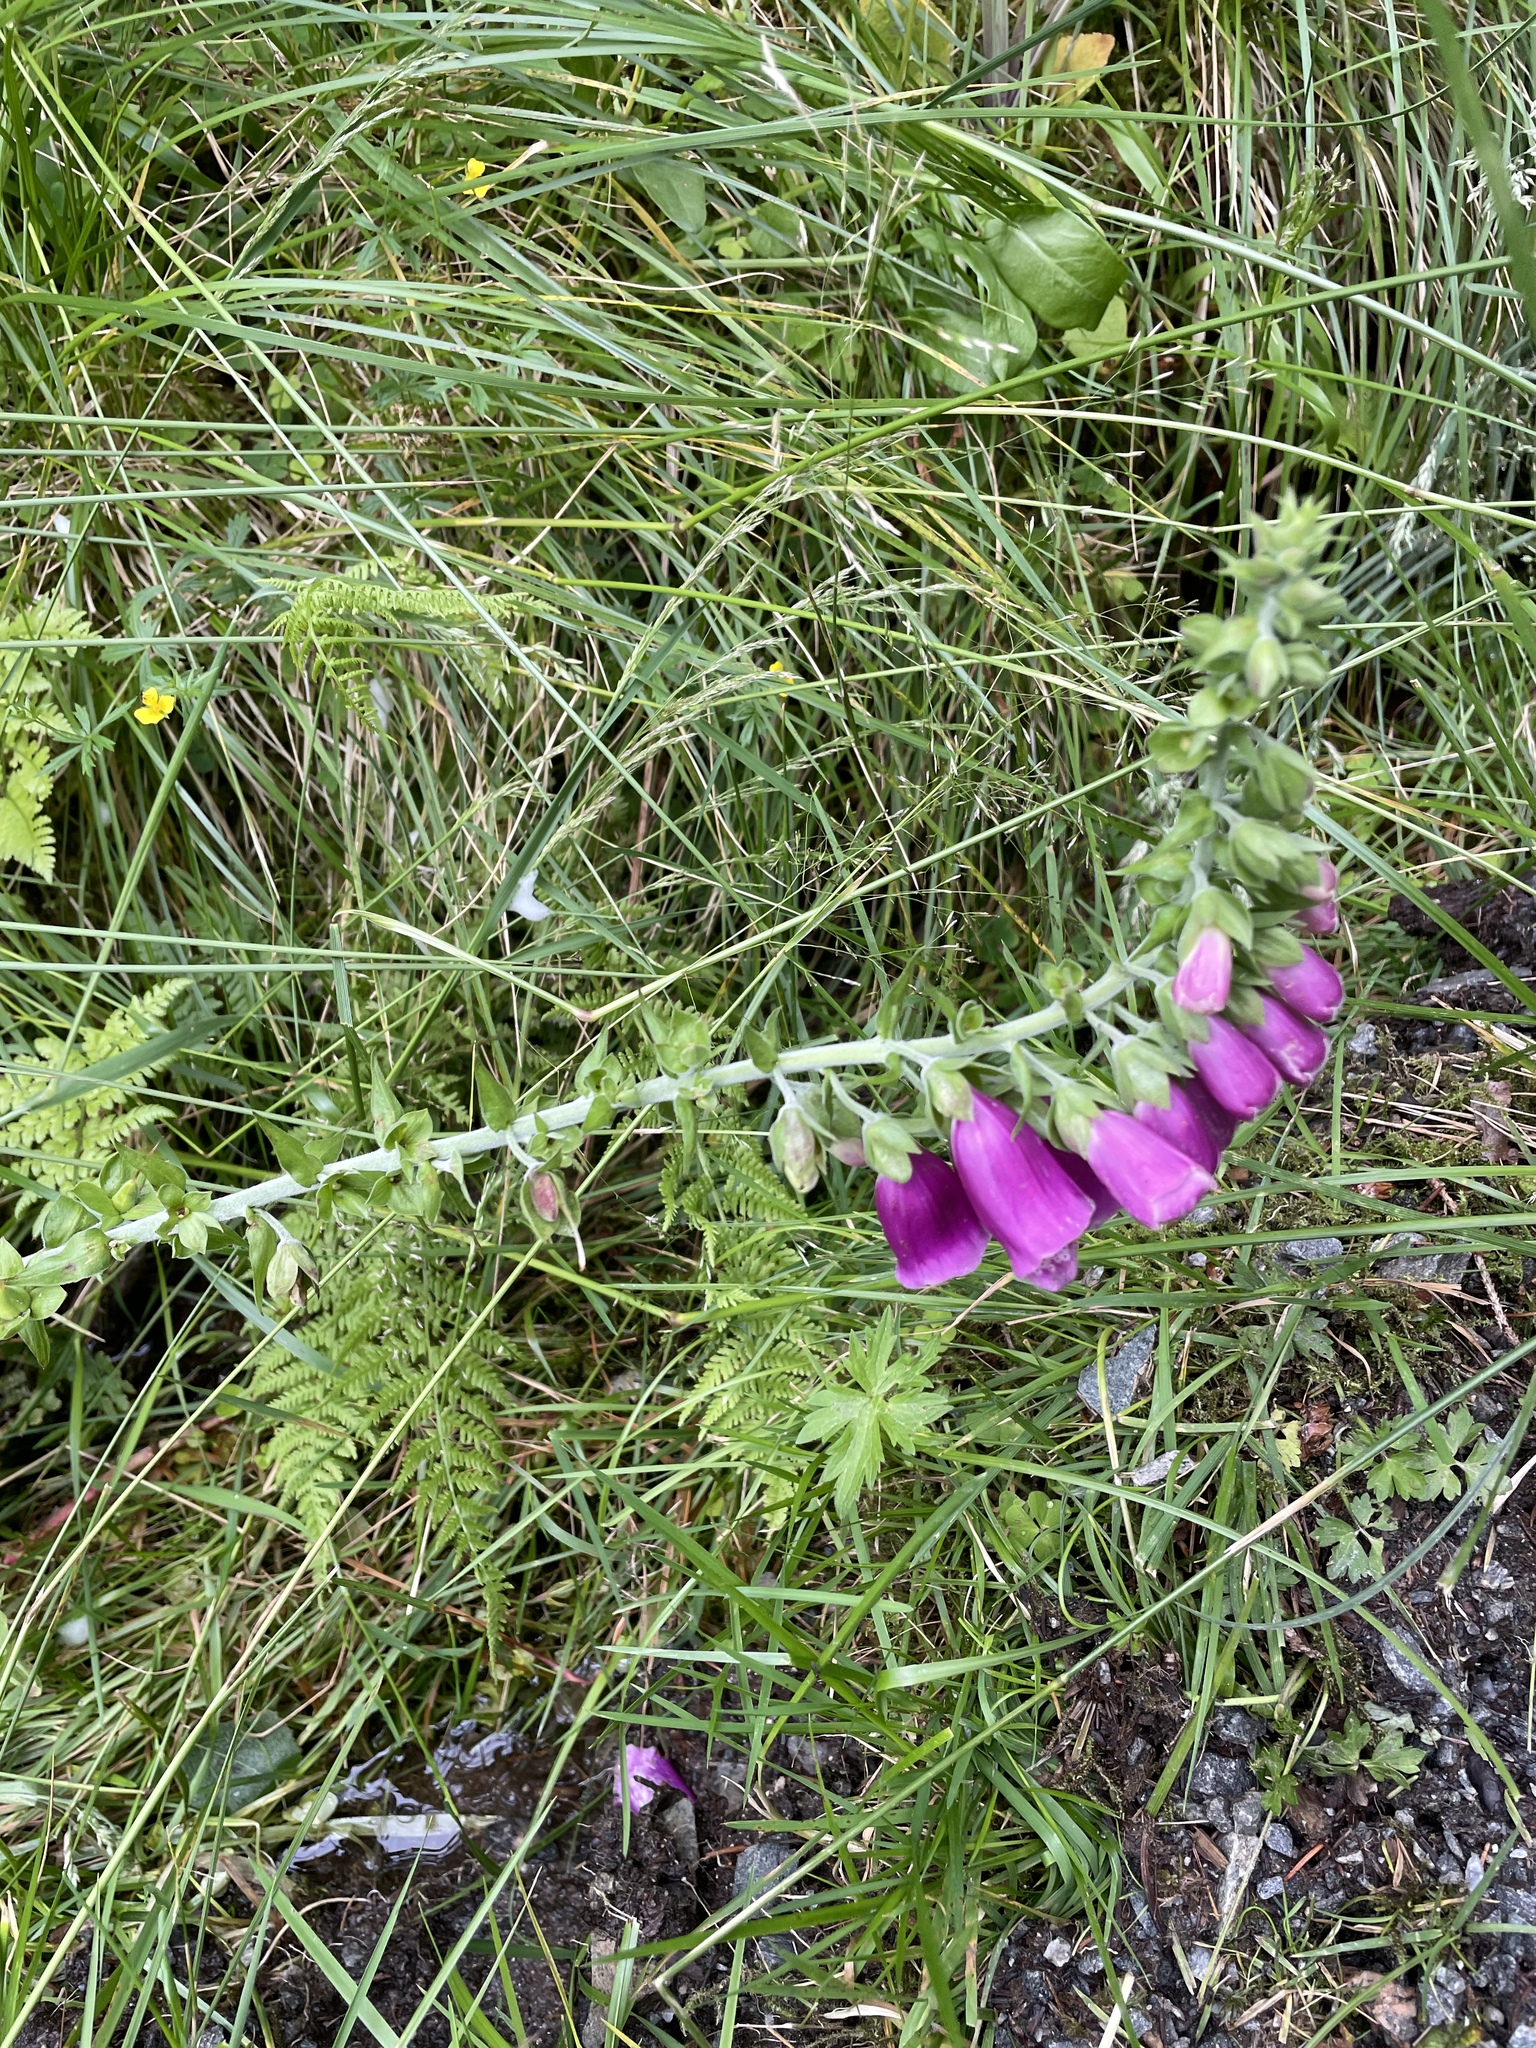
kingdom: Plantae
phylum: Tracheophyta
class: Magnoliopsida
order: Lamiales
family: Plantaginaceae
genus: Digitalis
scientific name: Digitalis purpurea
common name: Foxglove
